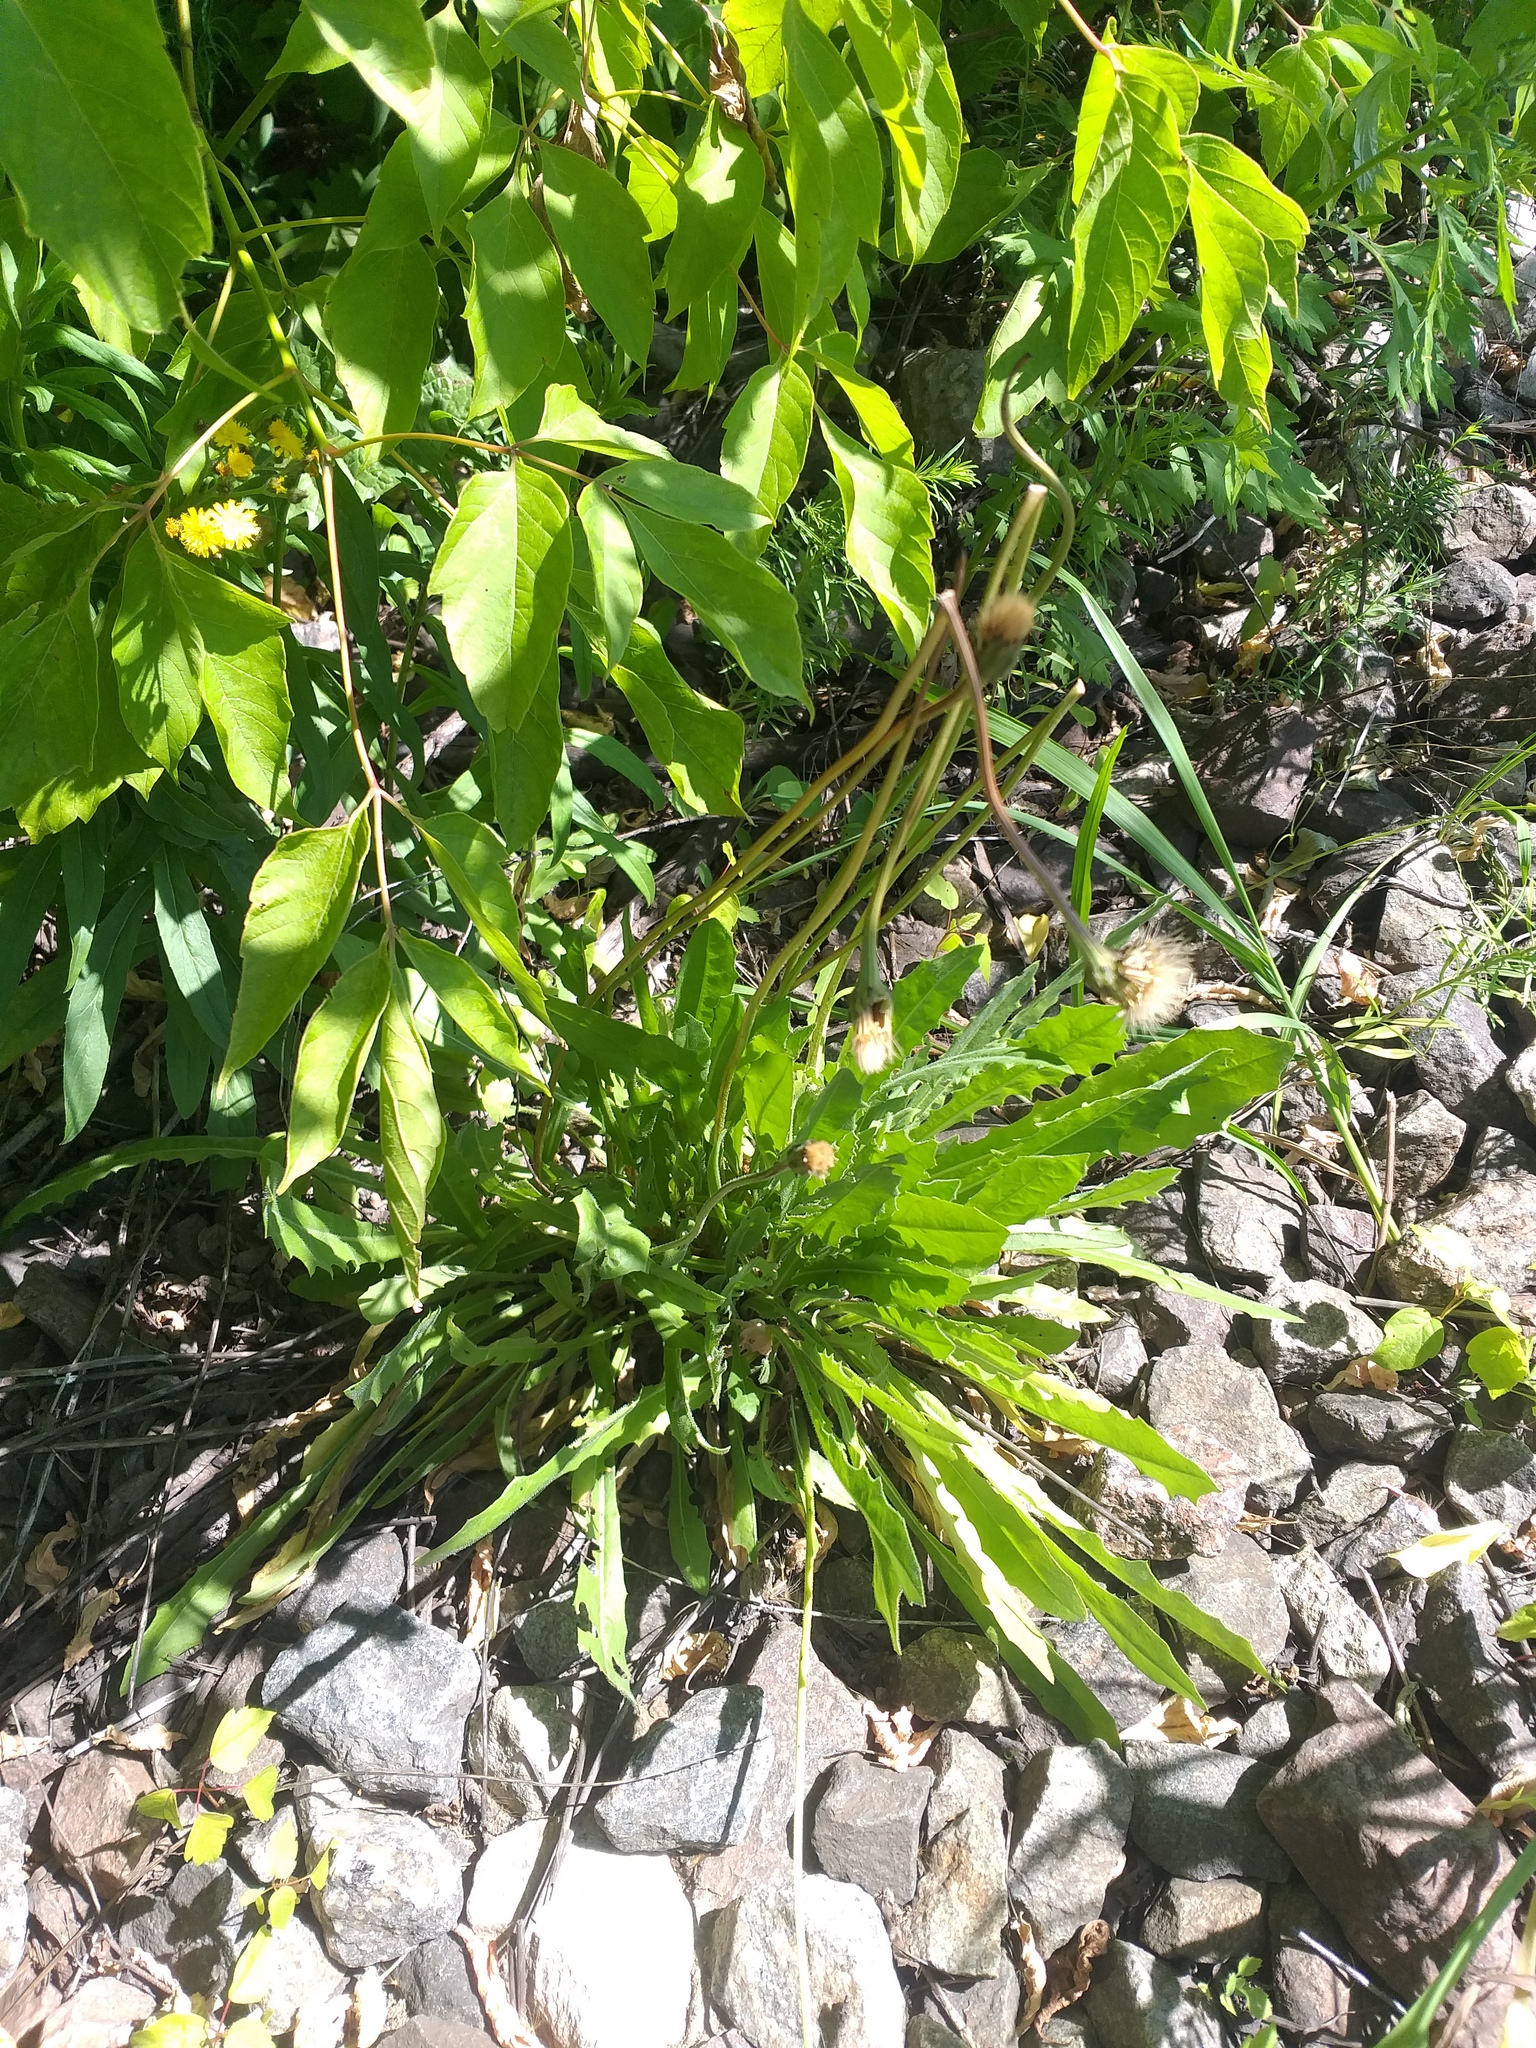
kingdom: Plantae
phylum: Tracheophyta
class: Magnoliopsida
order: Asterales
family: Asteraceae
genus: Leontodon
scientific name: Leontodon hispidus
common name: Rough hawkbit
